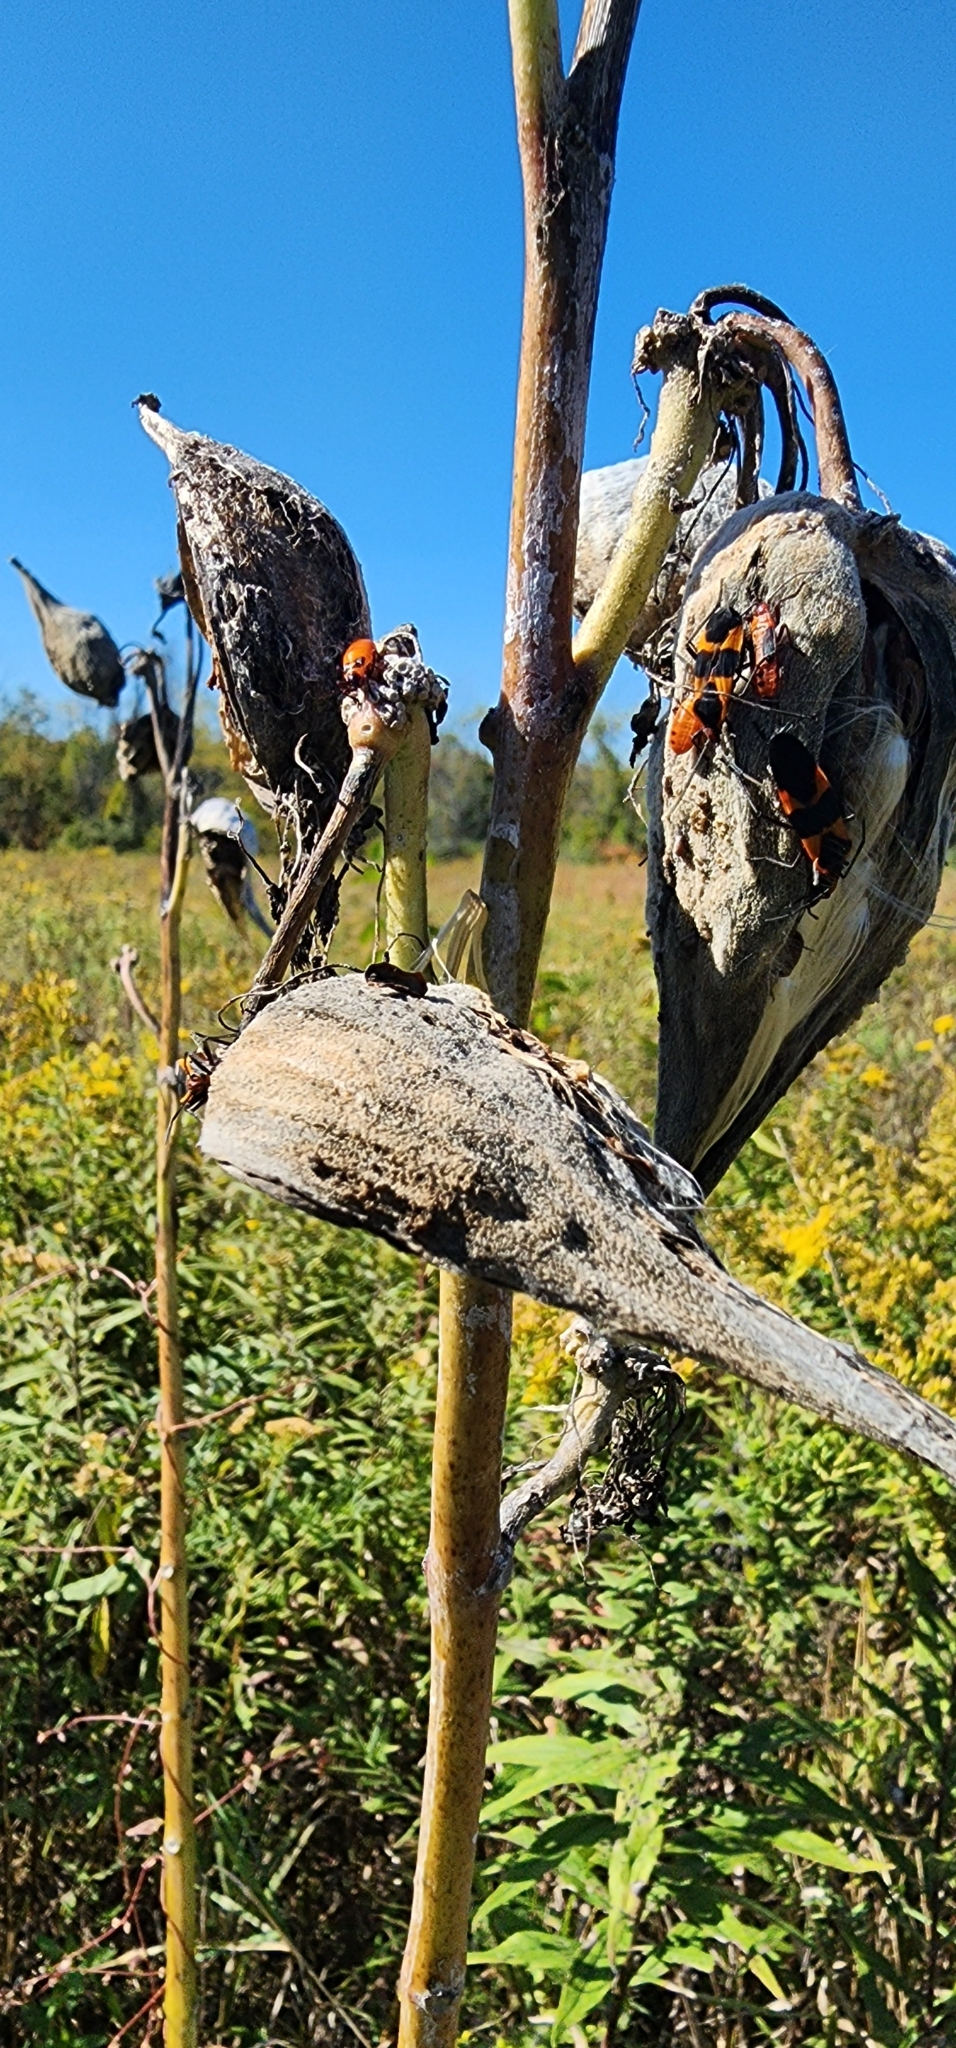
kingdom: Animalia
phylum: Arthropoda
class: Insecta
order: Hemiptera
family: Lygaeidae
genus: Oncopeltus
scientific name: Oncopeltus fasciatus
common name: Large milkweed bug
